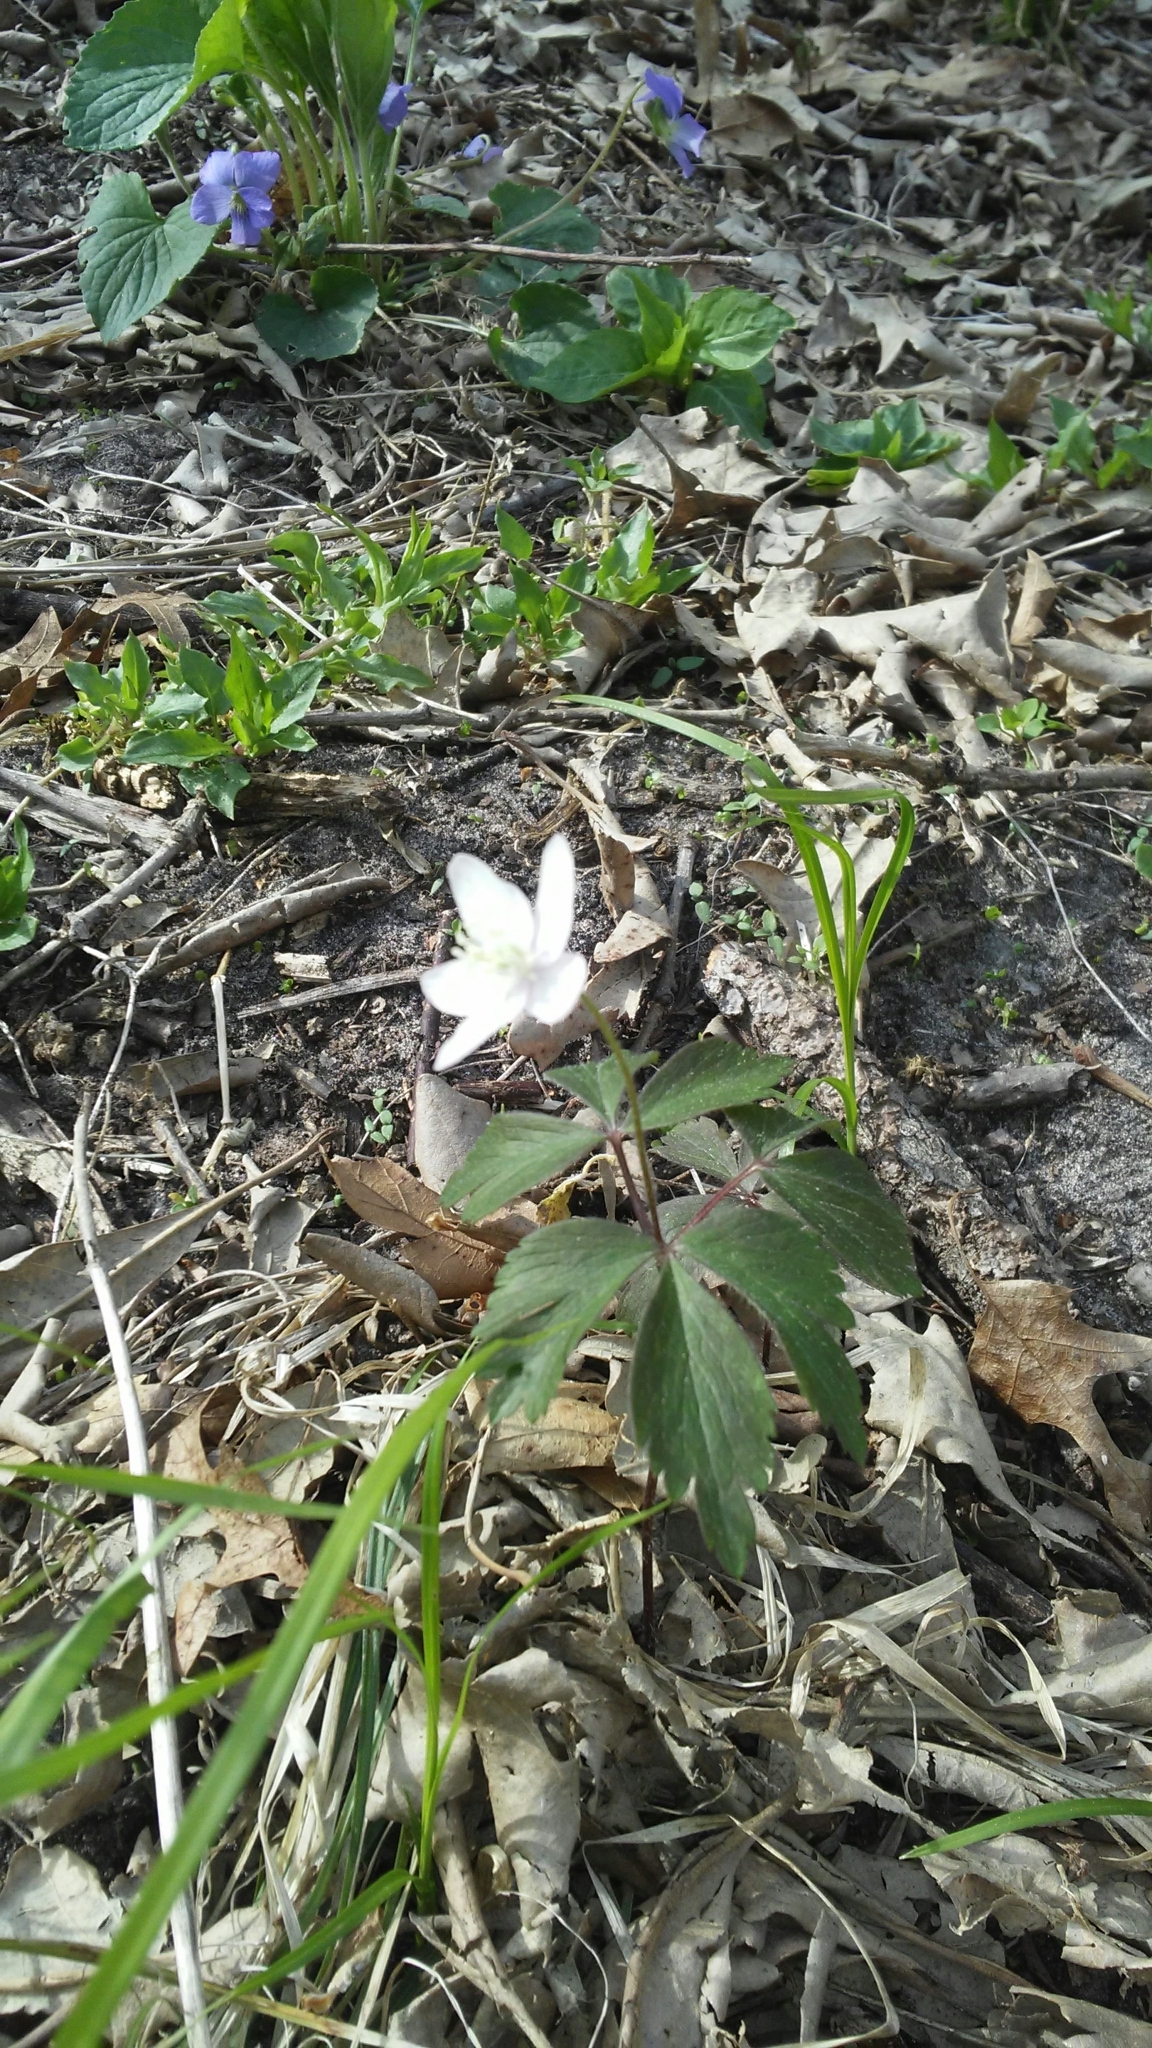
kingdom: Plantae
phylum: Tracheophyta
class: Magnoliopsida
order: Ranunculales
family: Ranunculaceae
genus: Anemone
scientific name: Anemone quinquefolia
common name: Wood anemone
